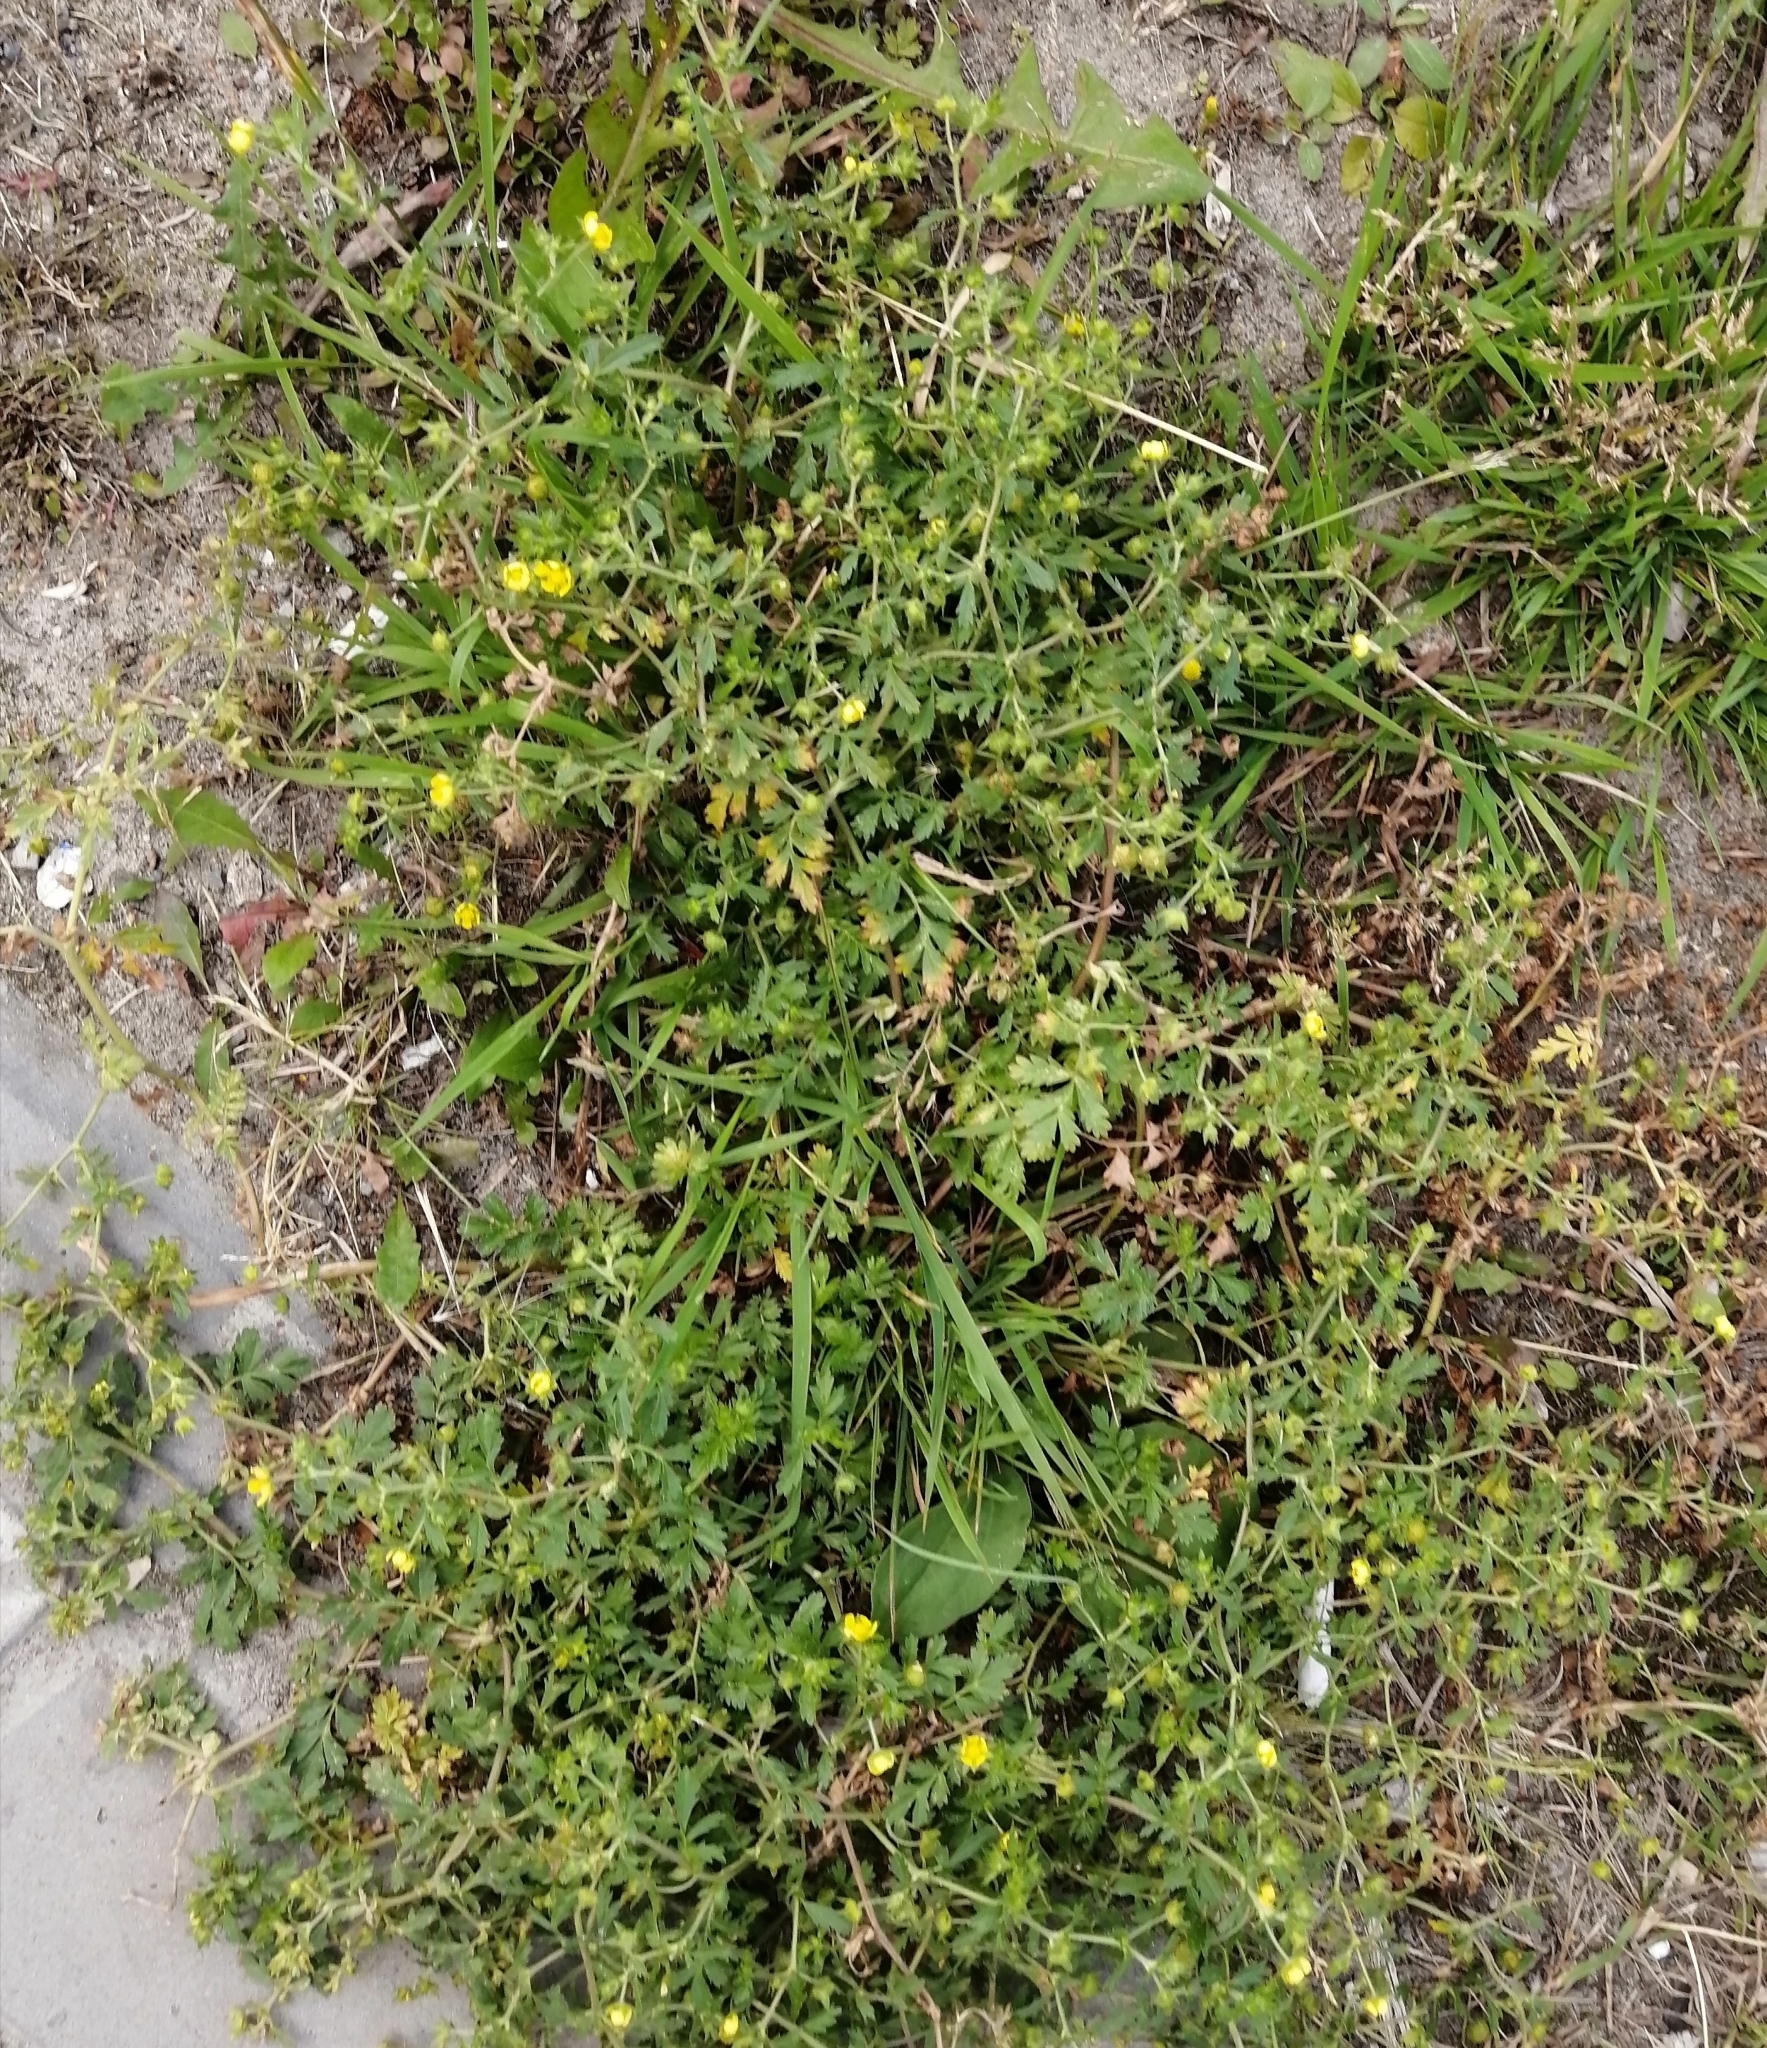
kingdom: Plantae
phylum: Tracheophyta
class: Magnoliopsida
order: Rosales
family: Rosaceae
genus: Potentilla
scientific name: Potentilla supina
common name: Prostrate cinquefoil
